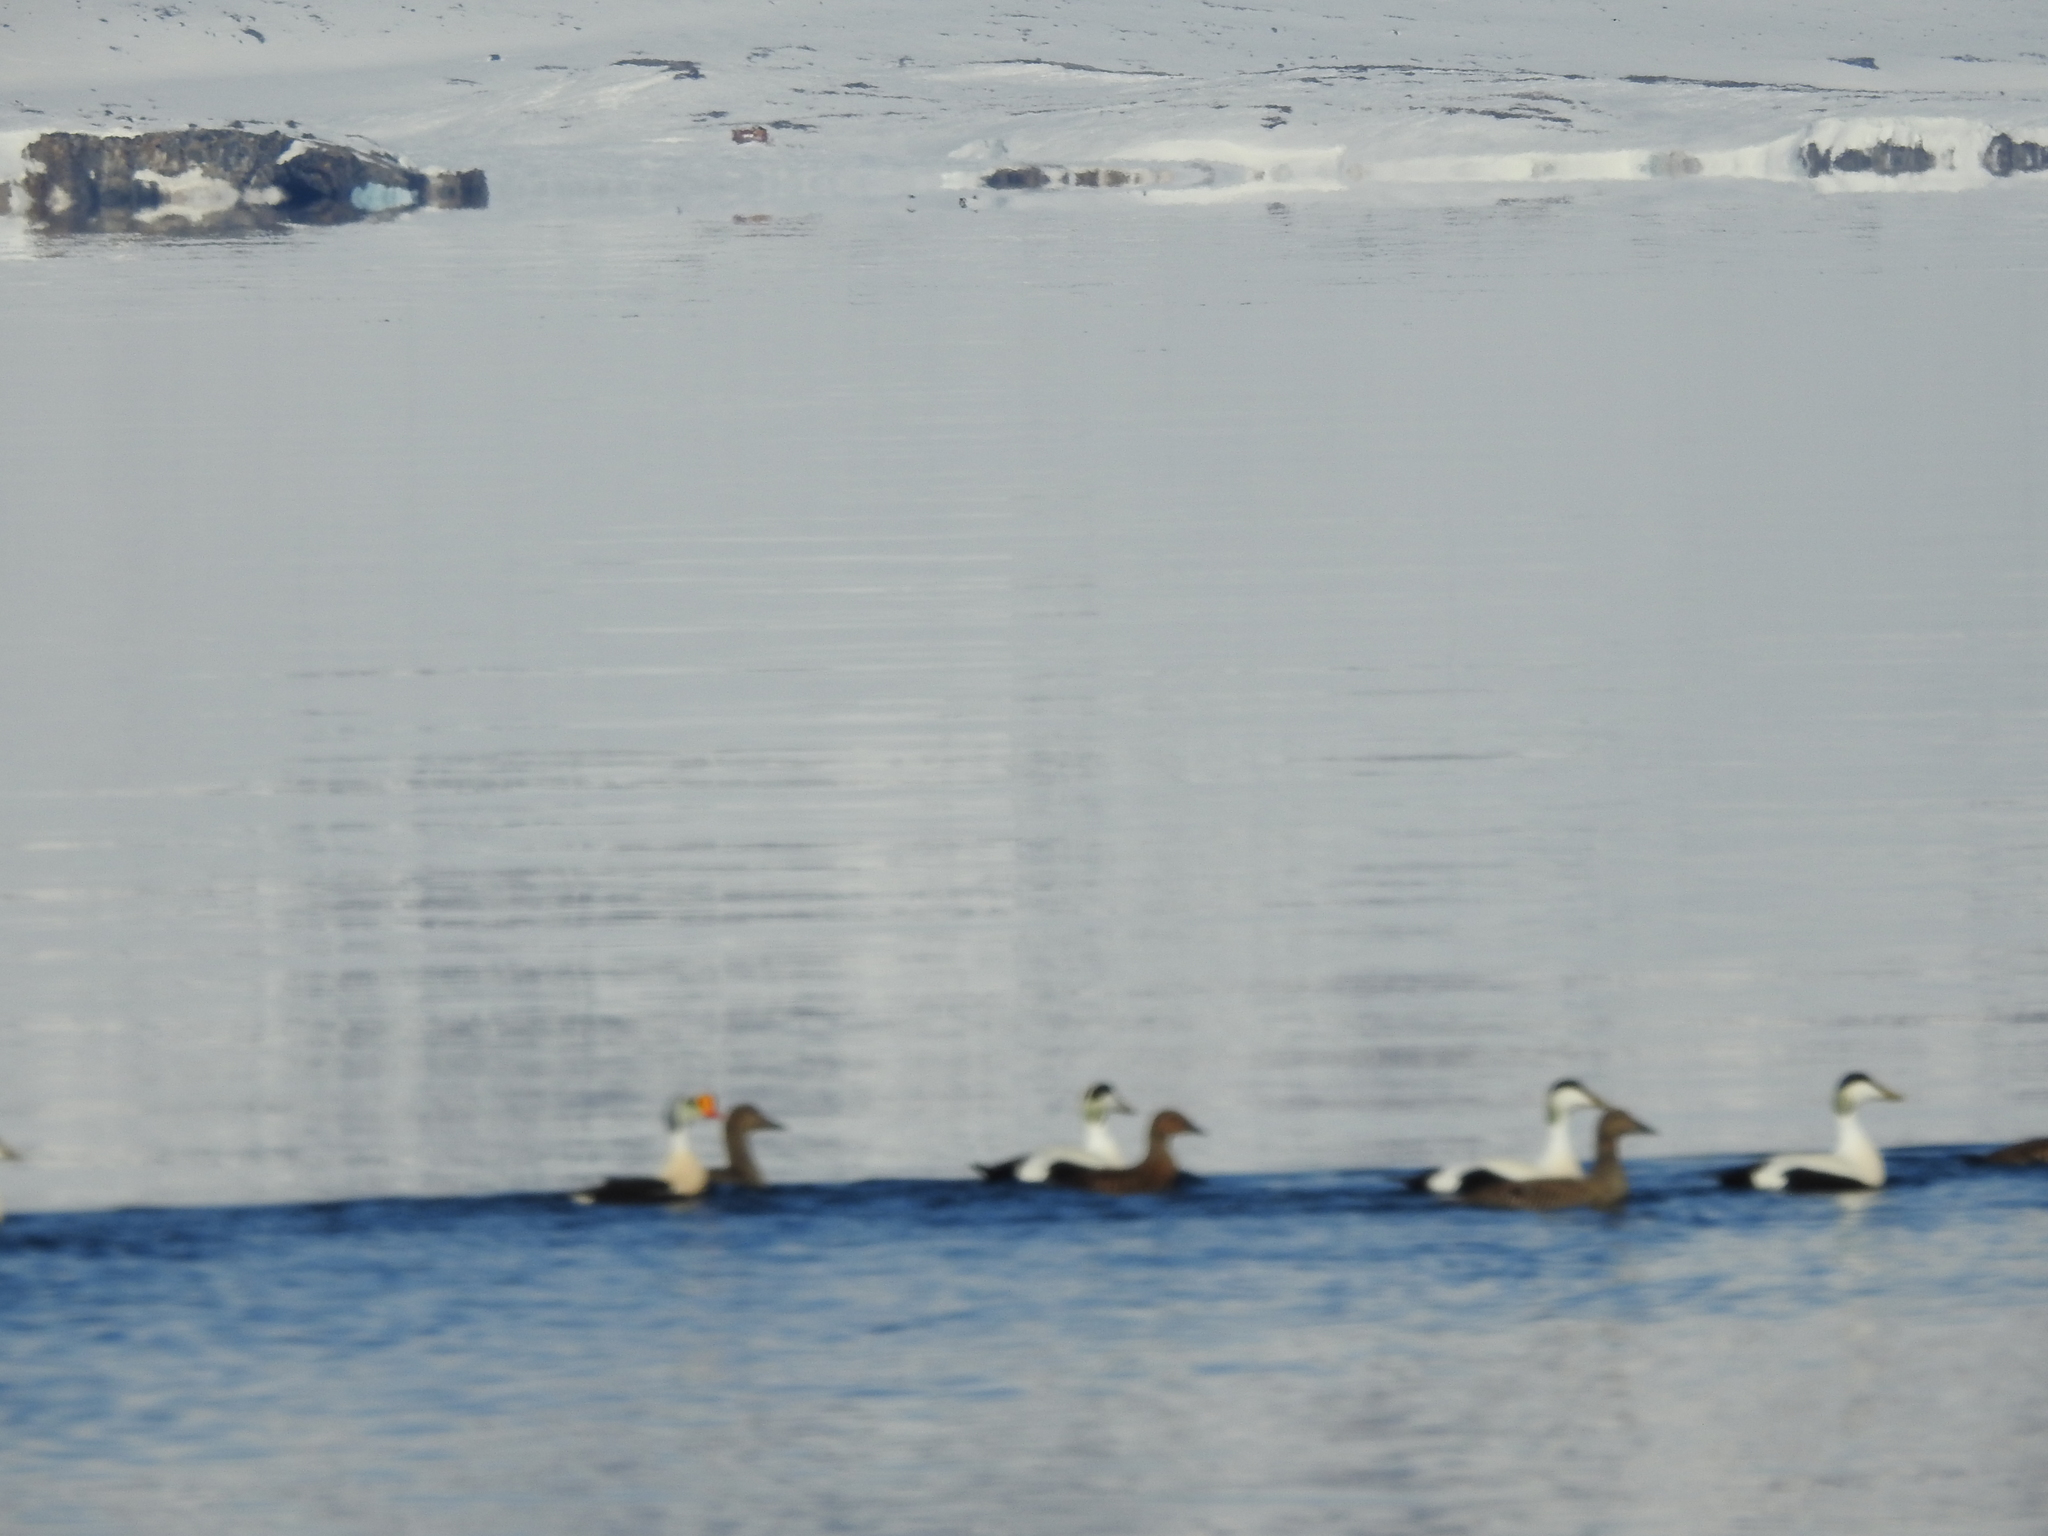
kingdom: Animalia
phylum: Chordata
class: Aves
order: Anseriformes
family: Anatidae
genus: Somateria
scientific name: Somateria spectabilis
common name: King eider
